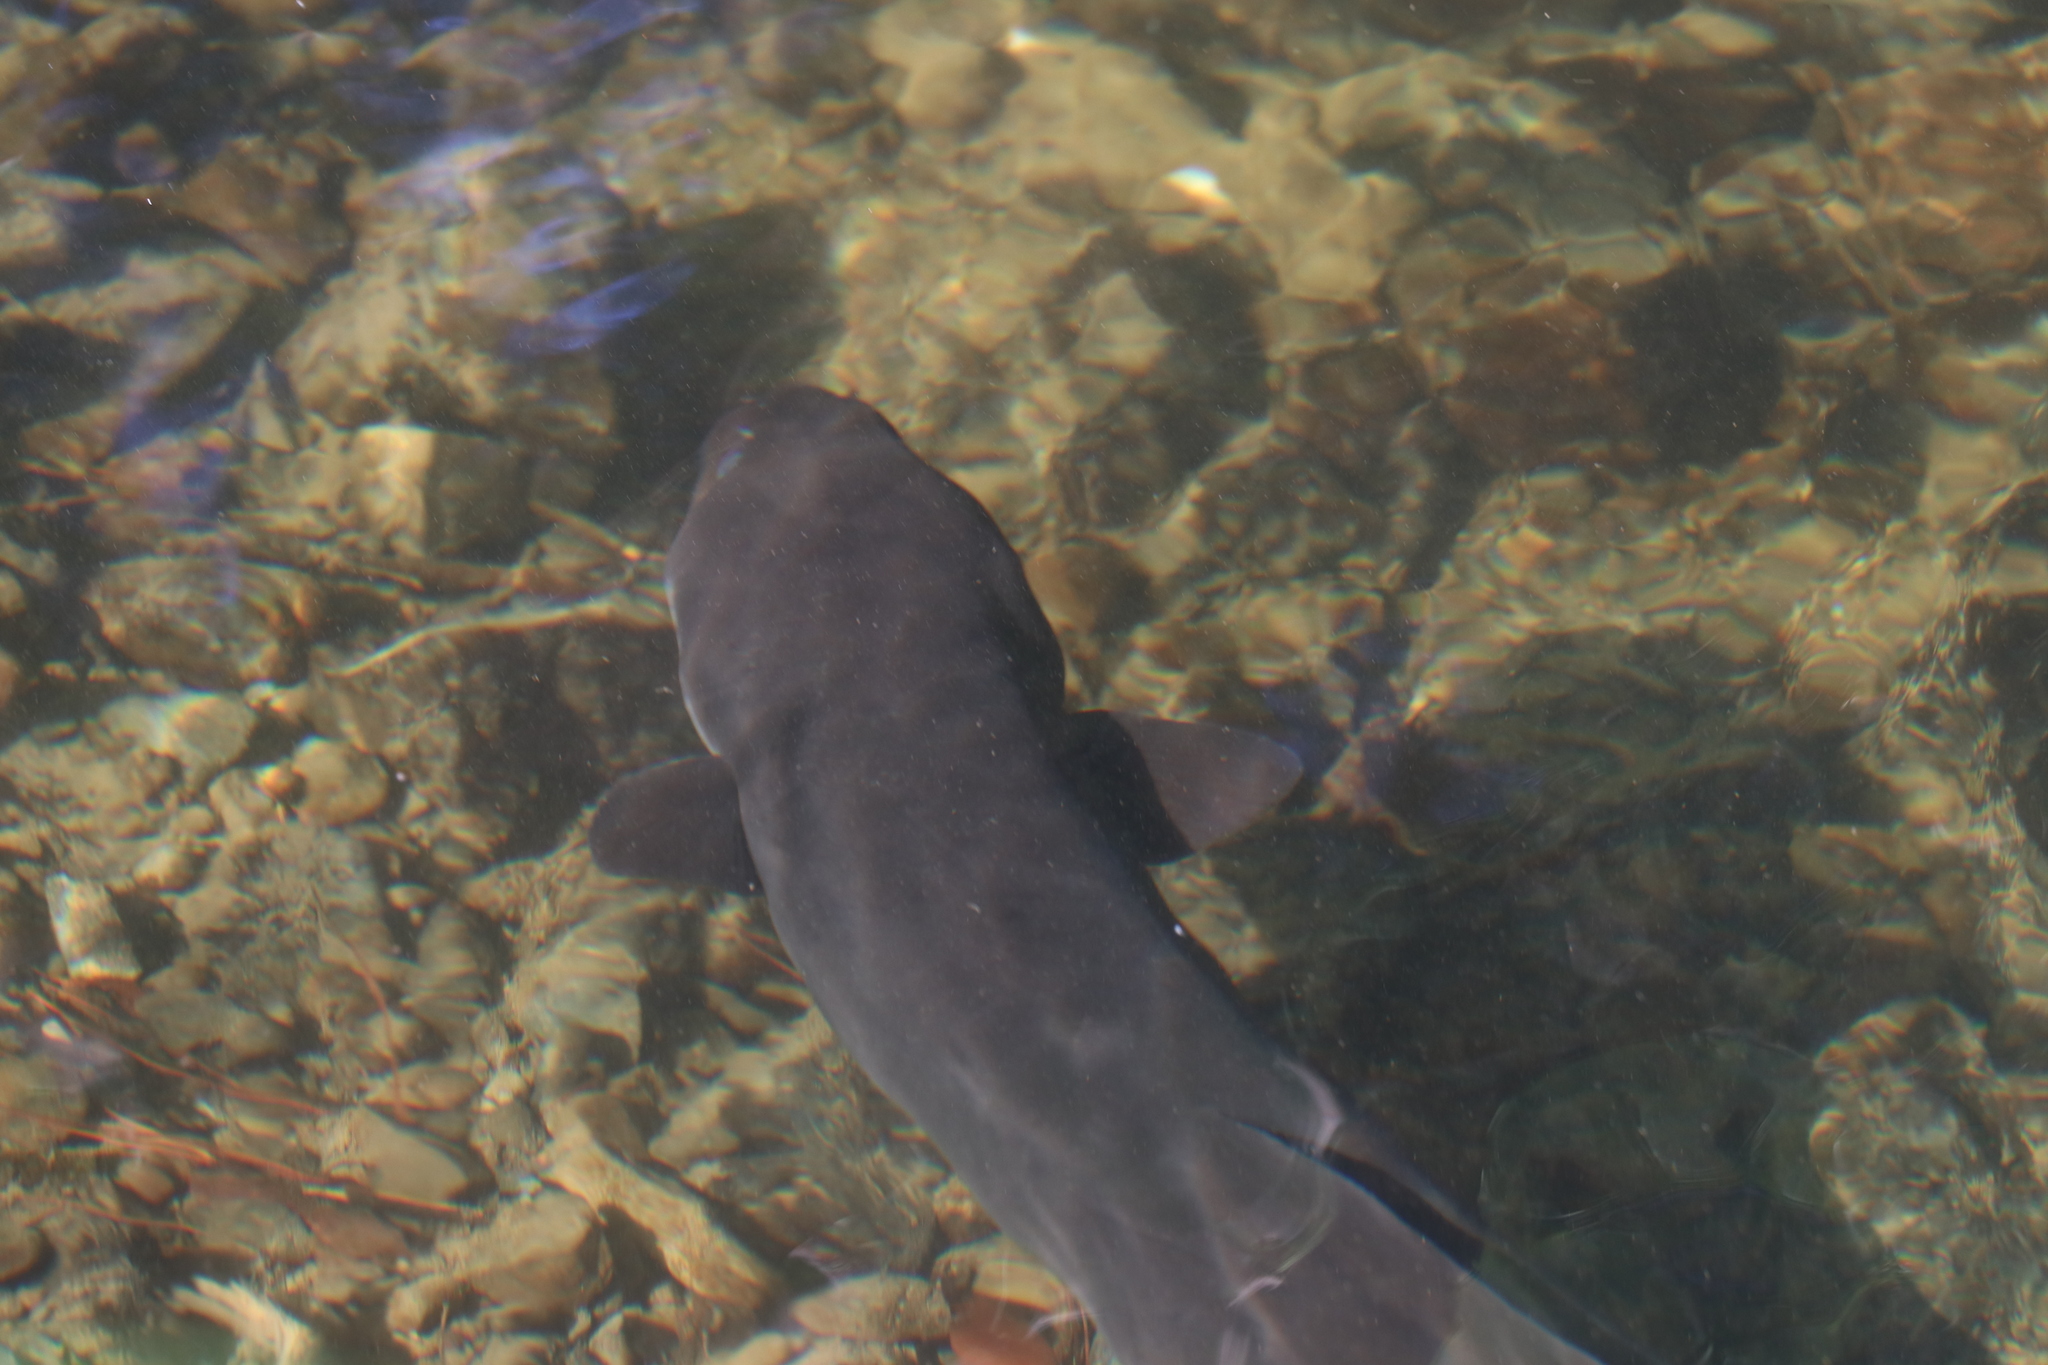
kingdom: Animalia
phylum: Chordata
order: Anguilliformes
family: Anguillidae
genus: Anguilla
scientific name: Anguilla dieffenbachii
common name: New zealand longfin eel
